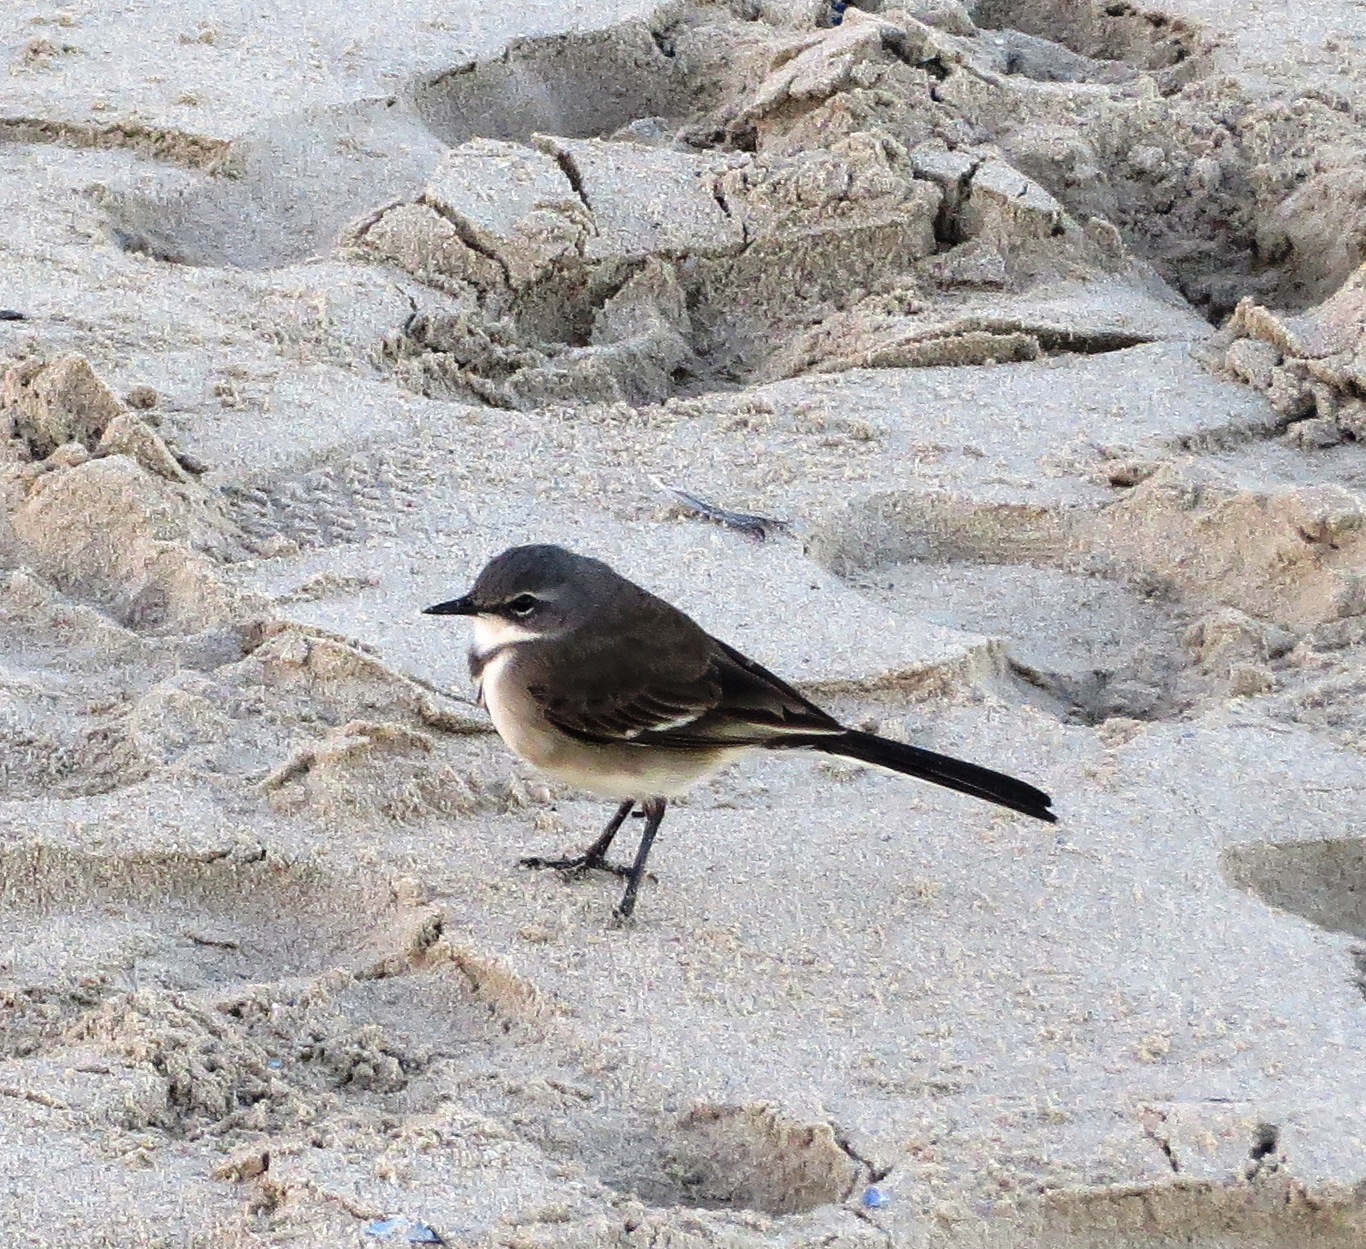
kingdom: Animalia
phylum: Chordata
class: Aves
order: Passeriformes
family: Motacillidae
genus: Motacilla
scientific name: Motacilla capensis
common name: Cape wagtail
